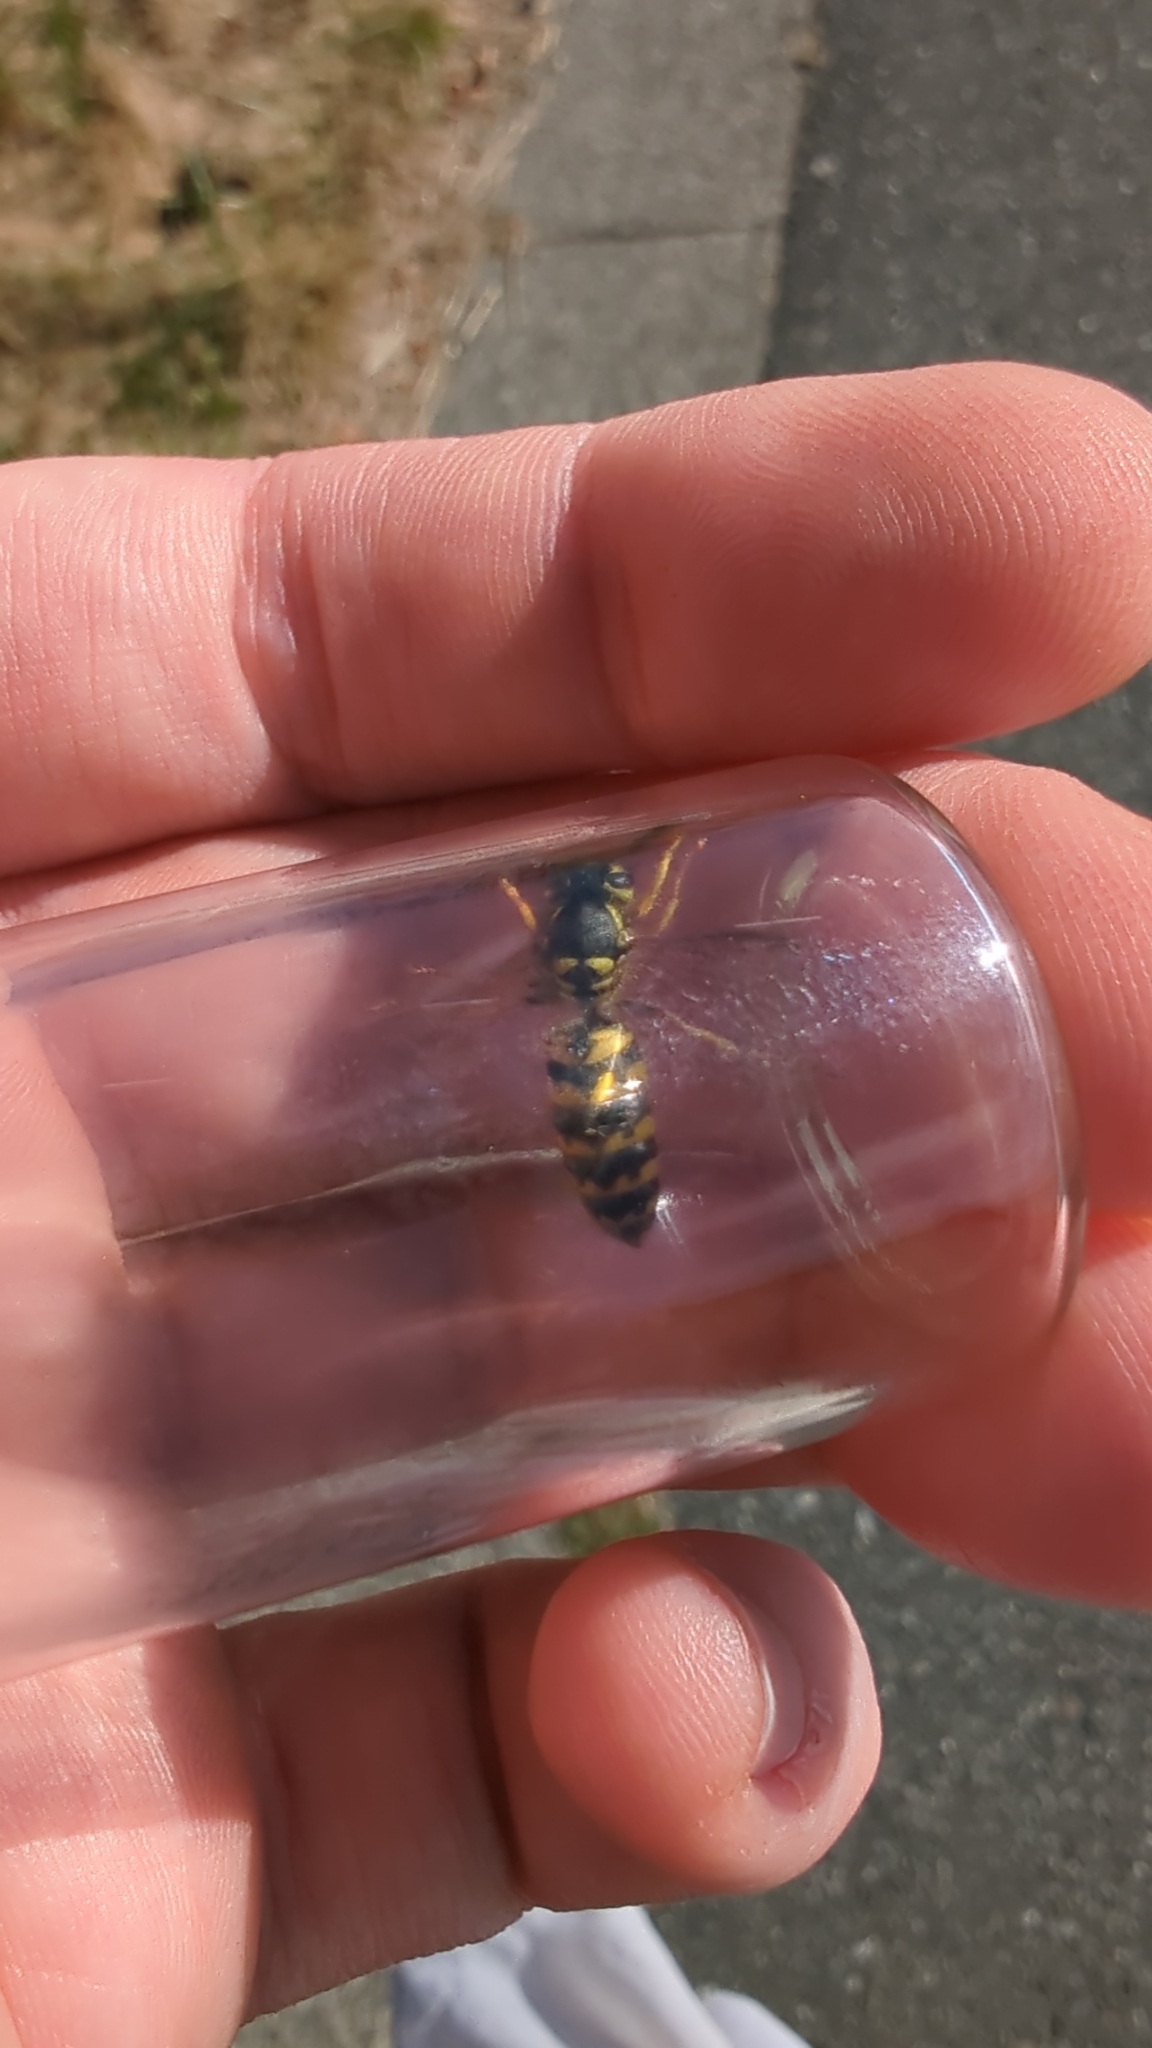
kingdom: Animalia
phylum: Arthropoda
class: Insecta
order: Hymenoptera
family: Vespidae
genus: Vespula
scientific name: Vespula pensylvanica
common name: Western yellowjacket
